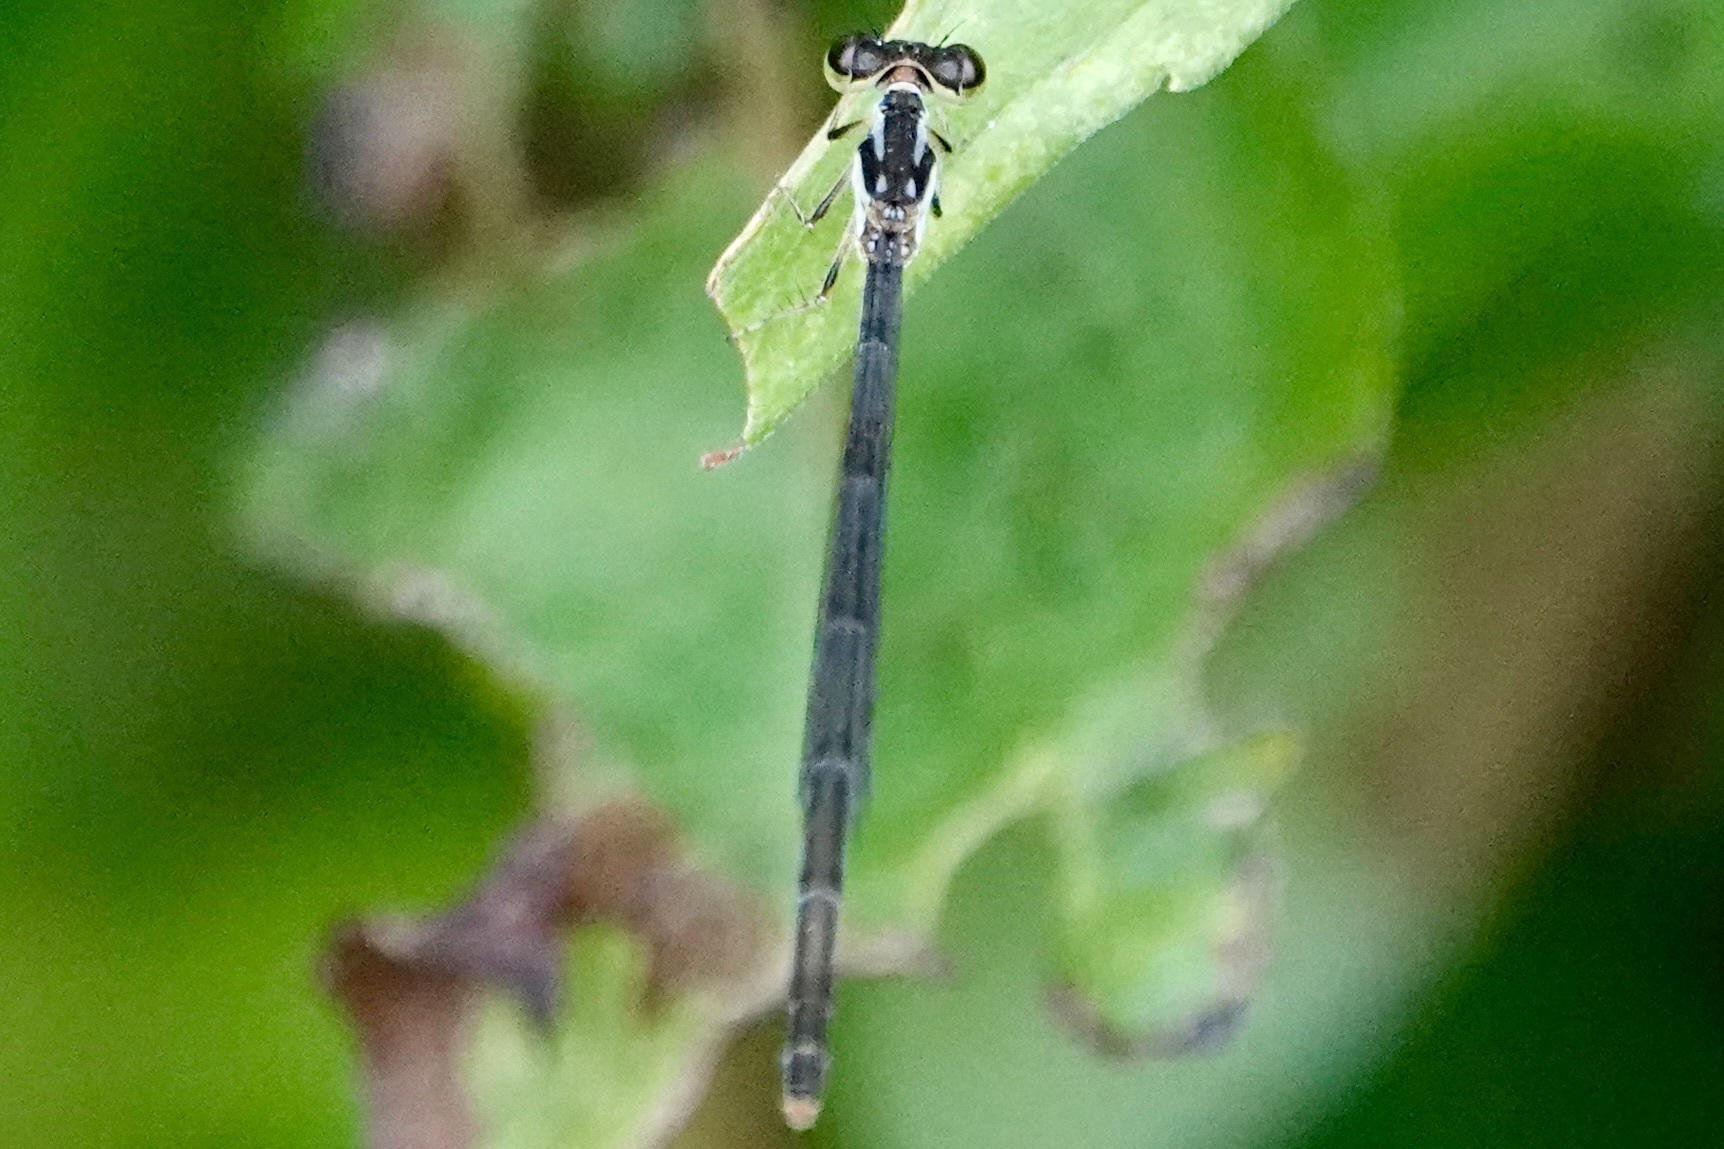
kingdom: Animalia
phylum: Arthropoda
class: Insecta
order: Odonata
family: Coenagrionidae
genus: Ischnura
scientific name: Ischnura posita
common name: Fragile forktail
